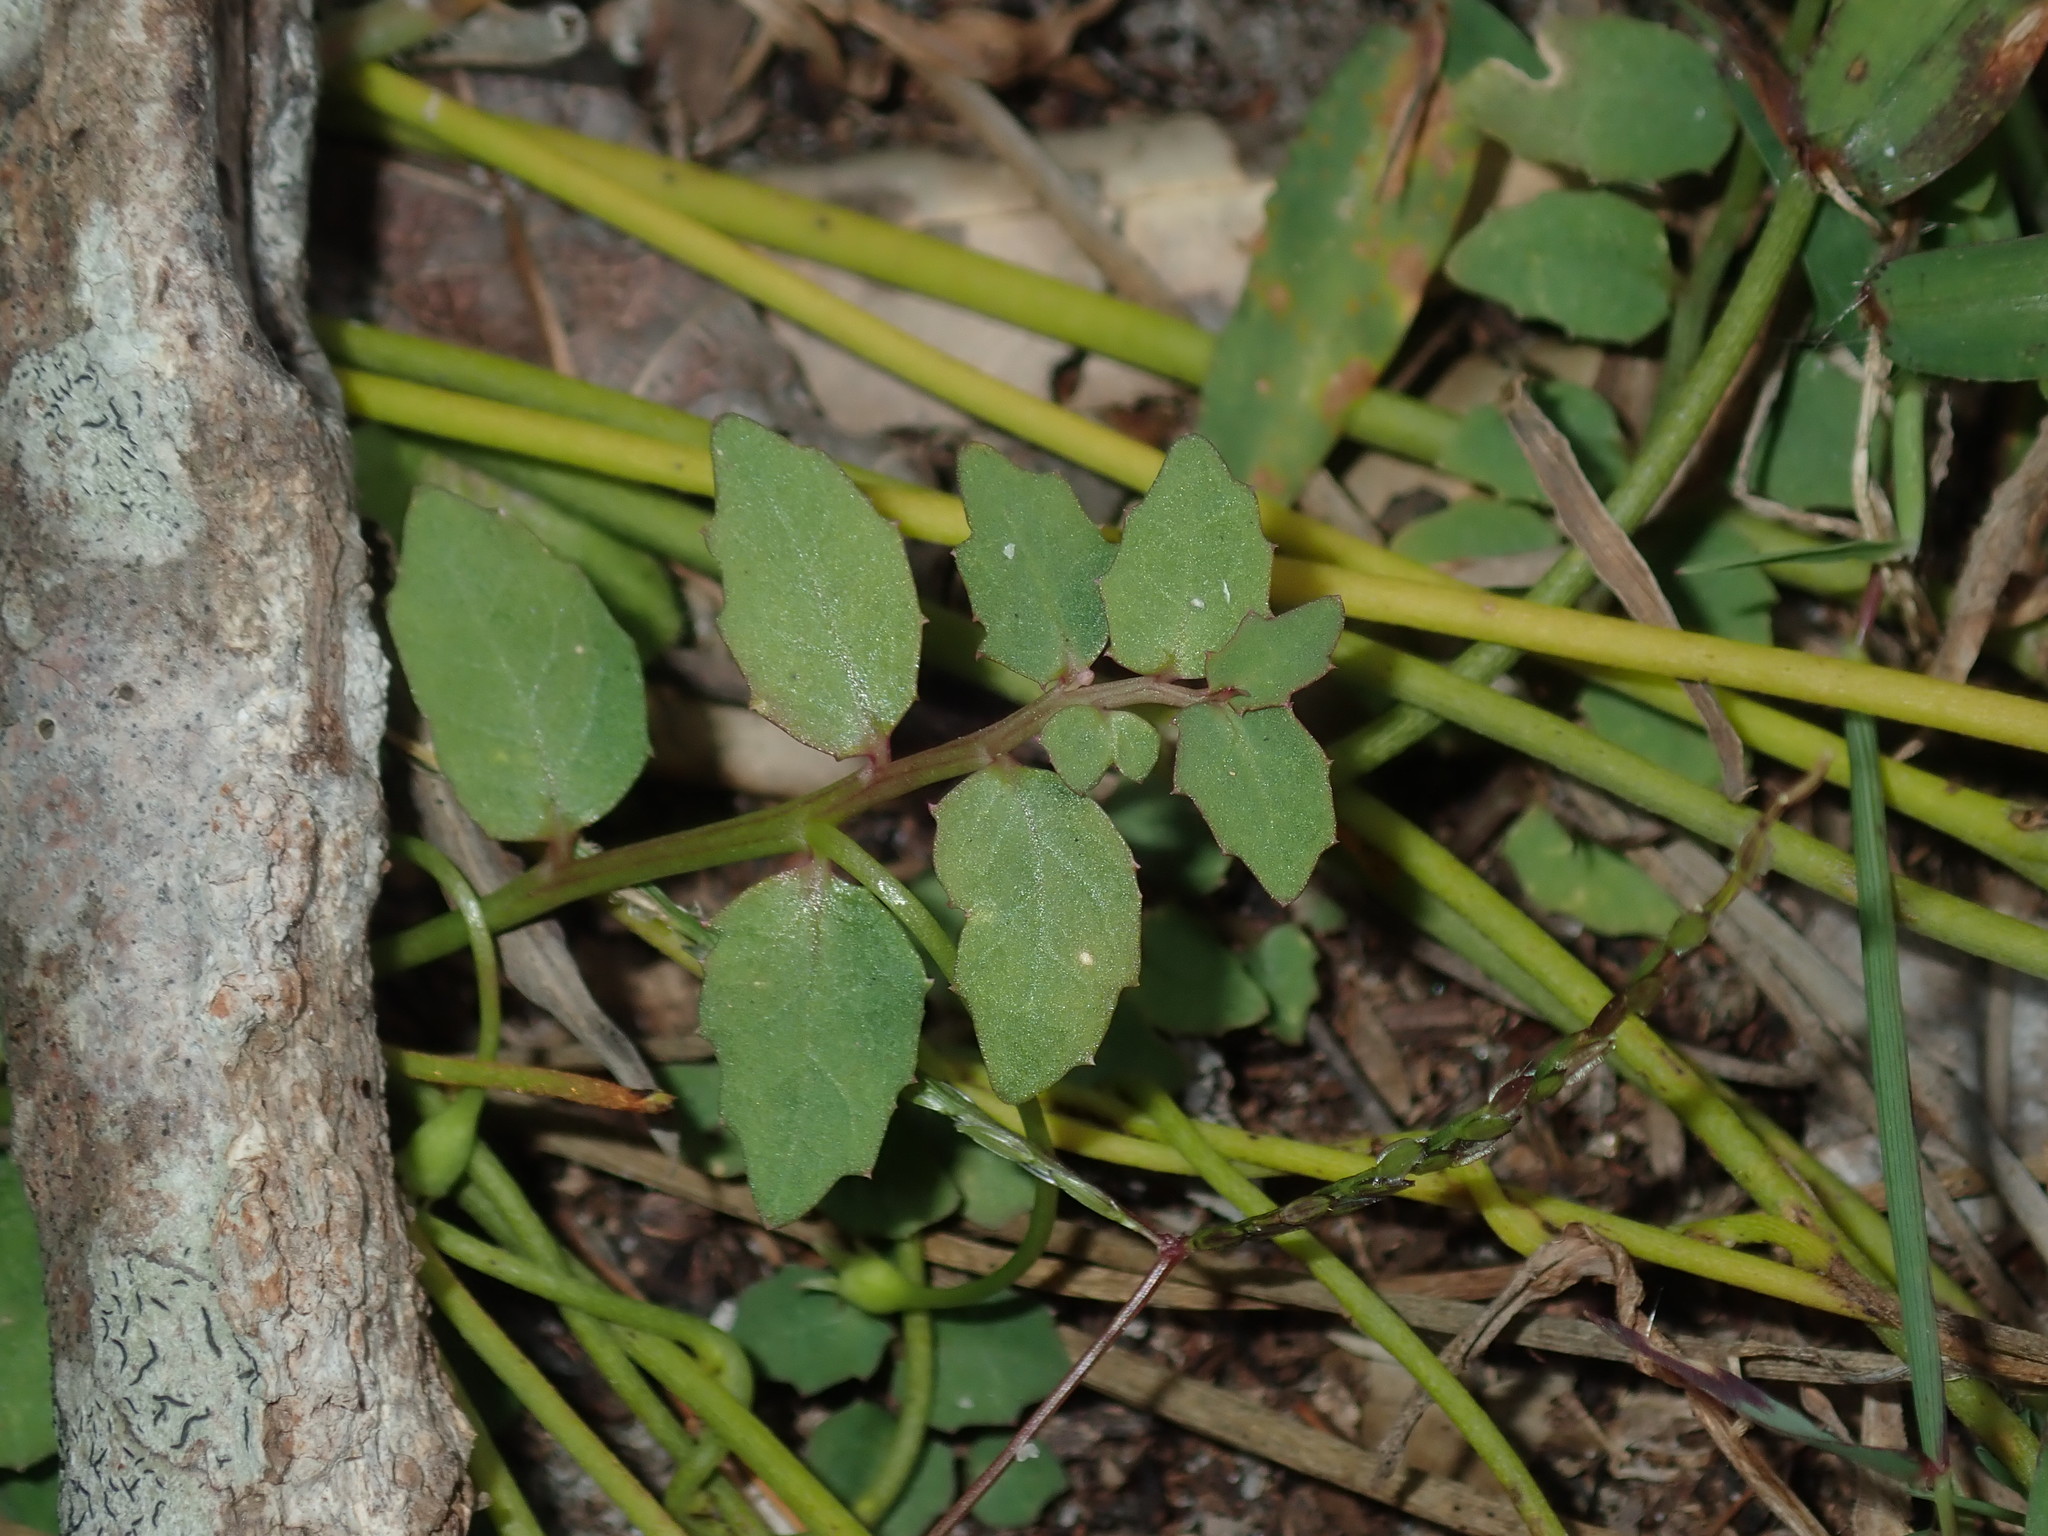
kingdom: Plantae
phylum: Tracheophyta
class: Magnoliopsida
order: Asterales
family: Campanulaceae
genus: Lobelia
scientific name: Lobelia purpurascens
